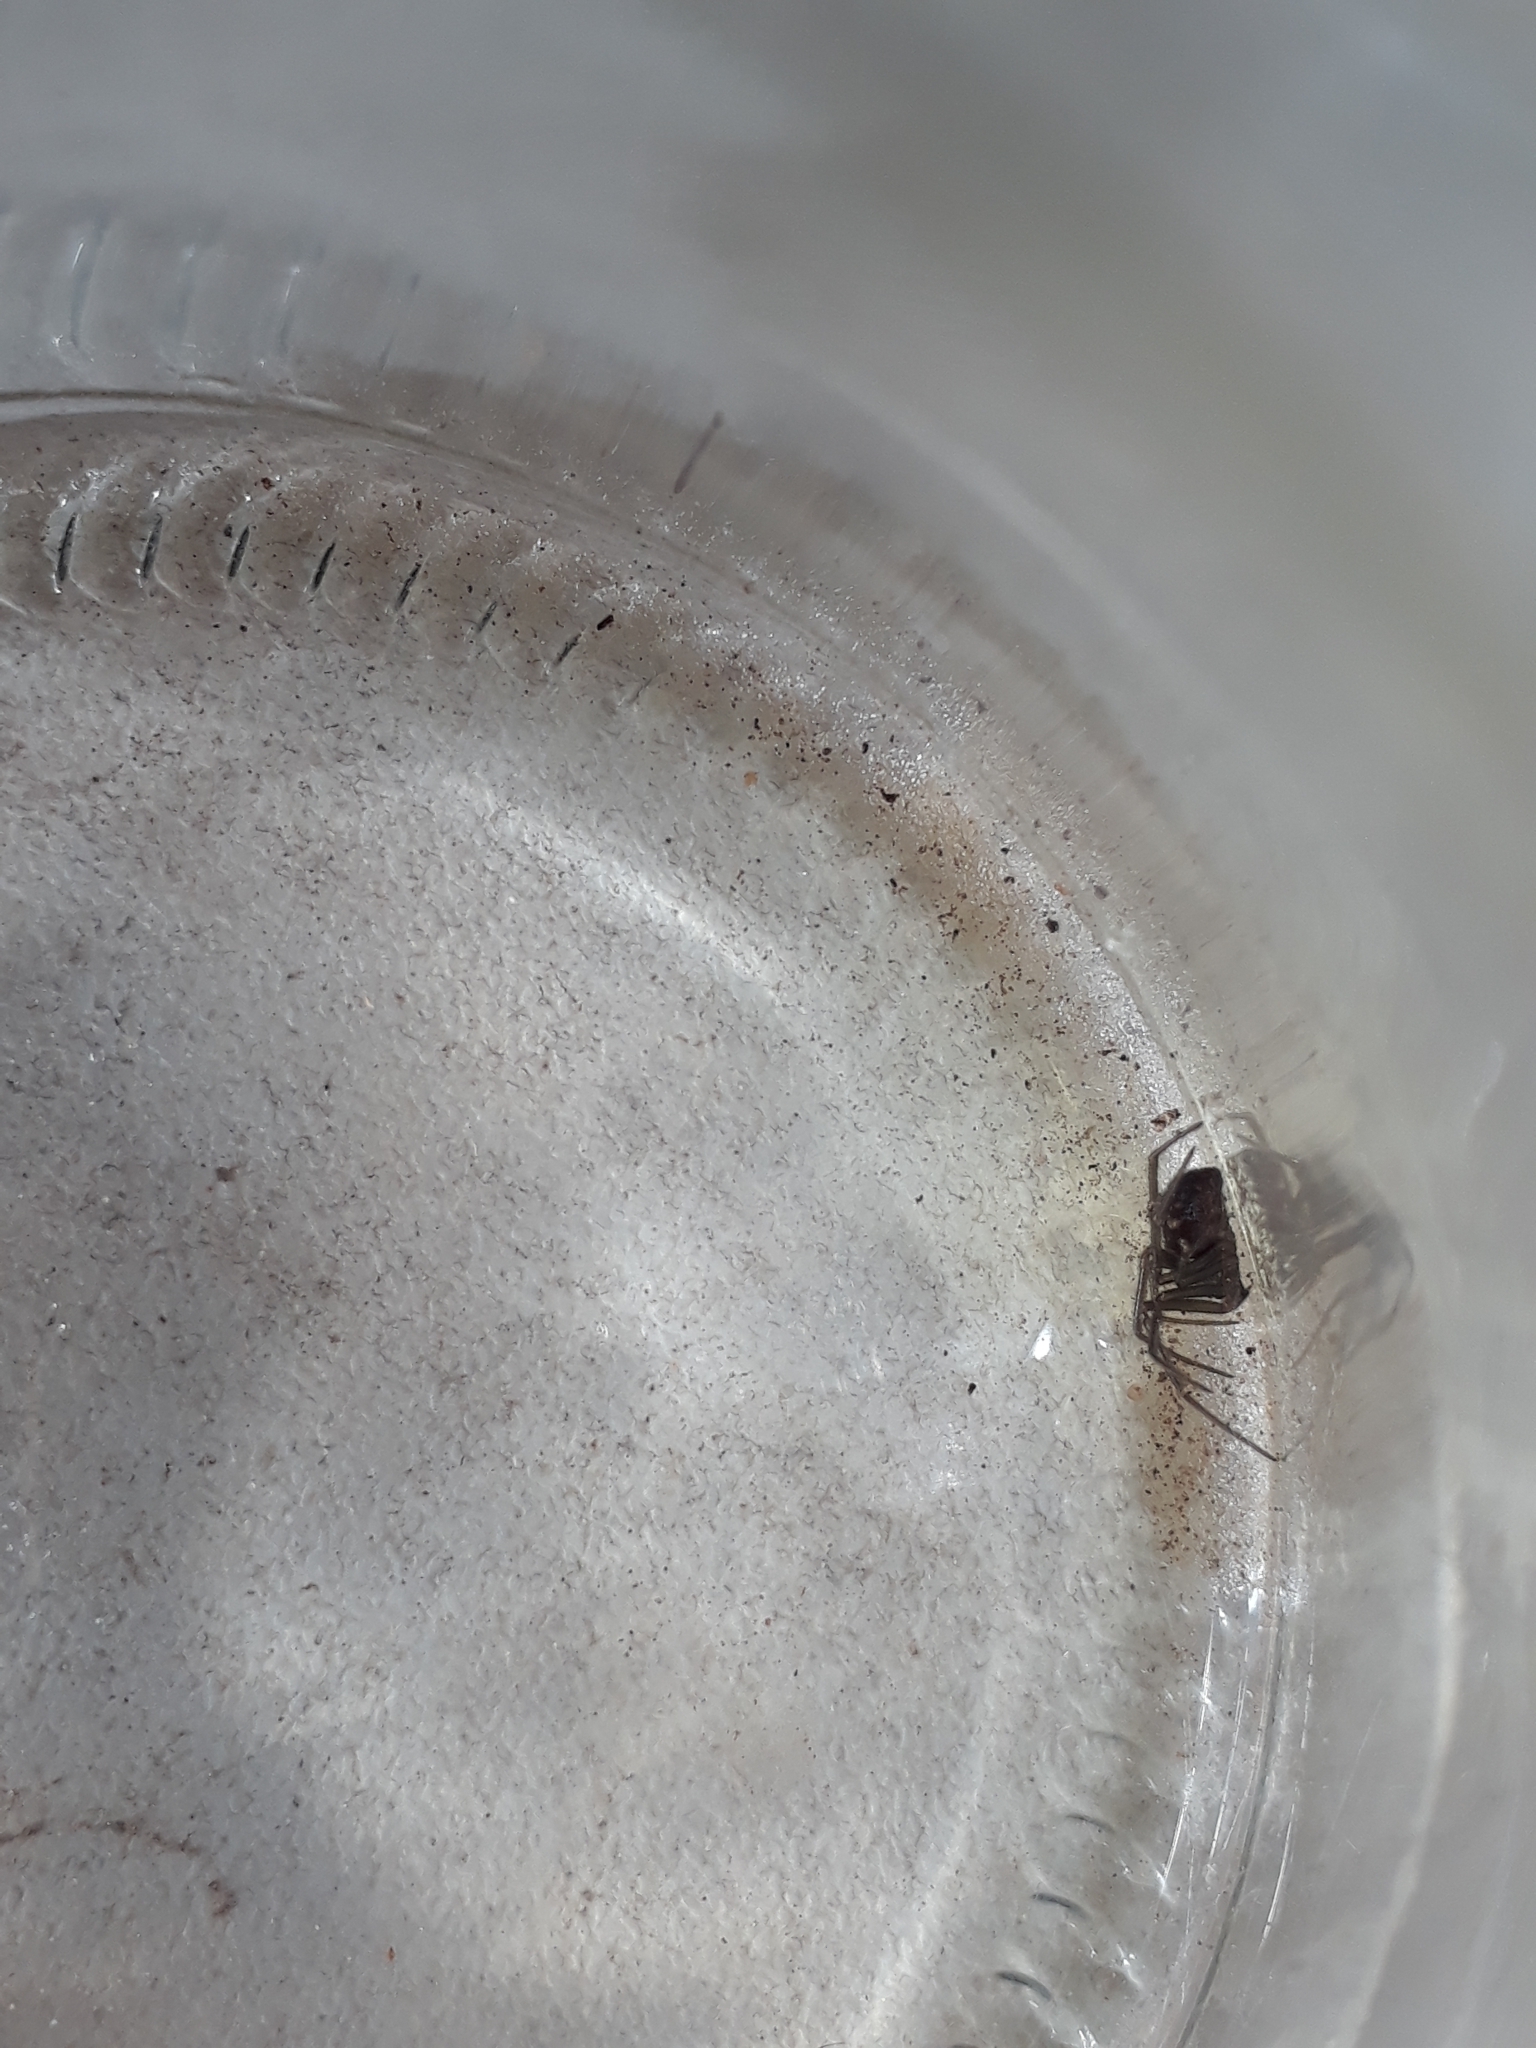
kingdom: Animalia
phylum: Arthropoda
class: Arachnida
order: Araneae
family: Theridiidae
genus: Steatoda
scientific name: Steatoda grossa
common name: False black widow
